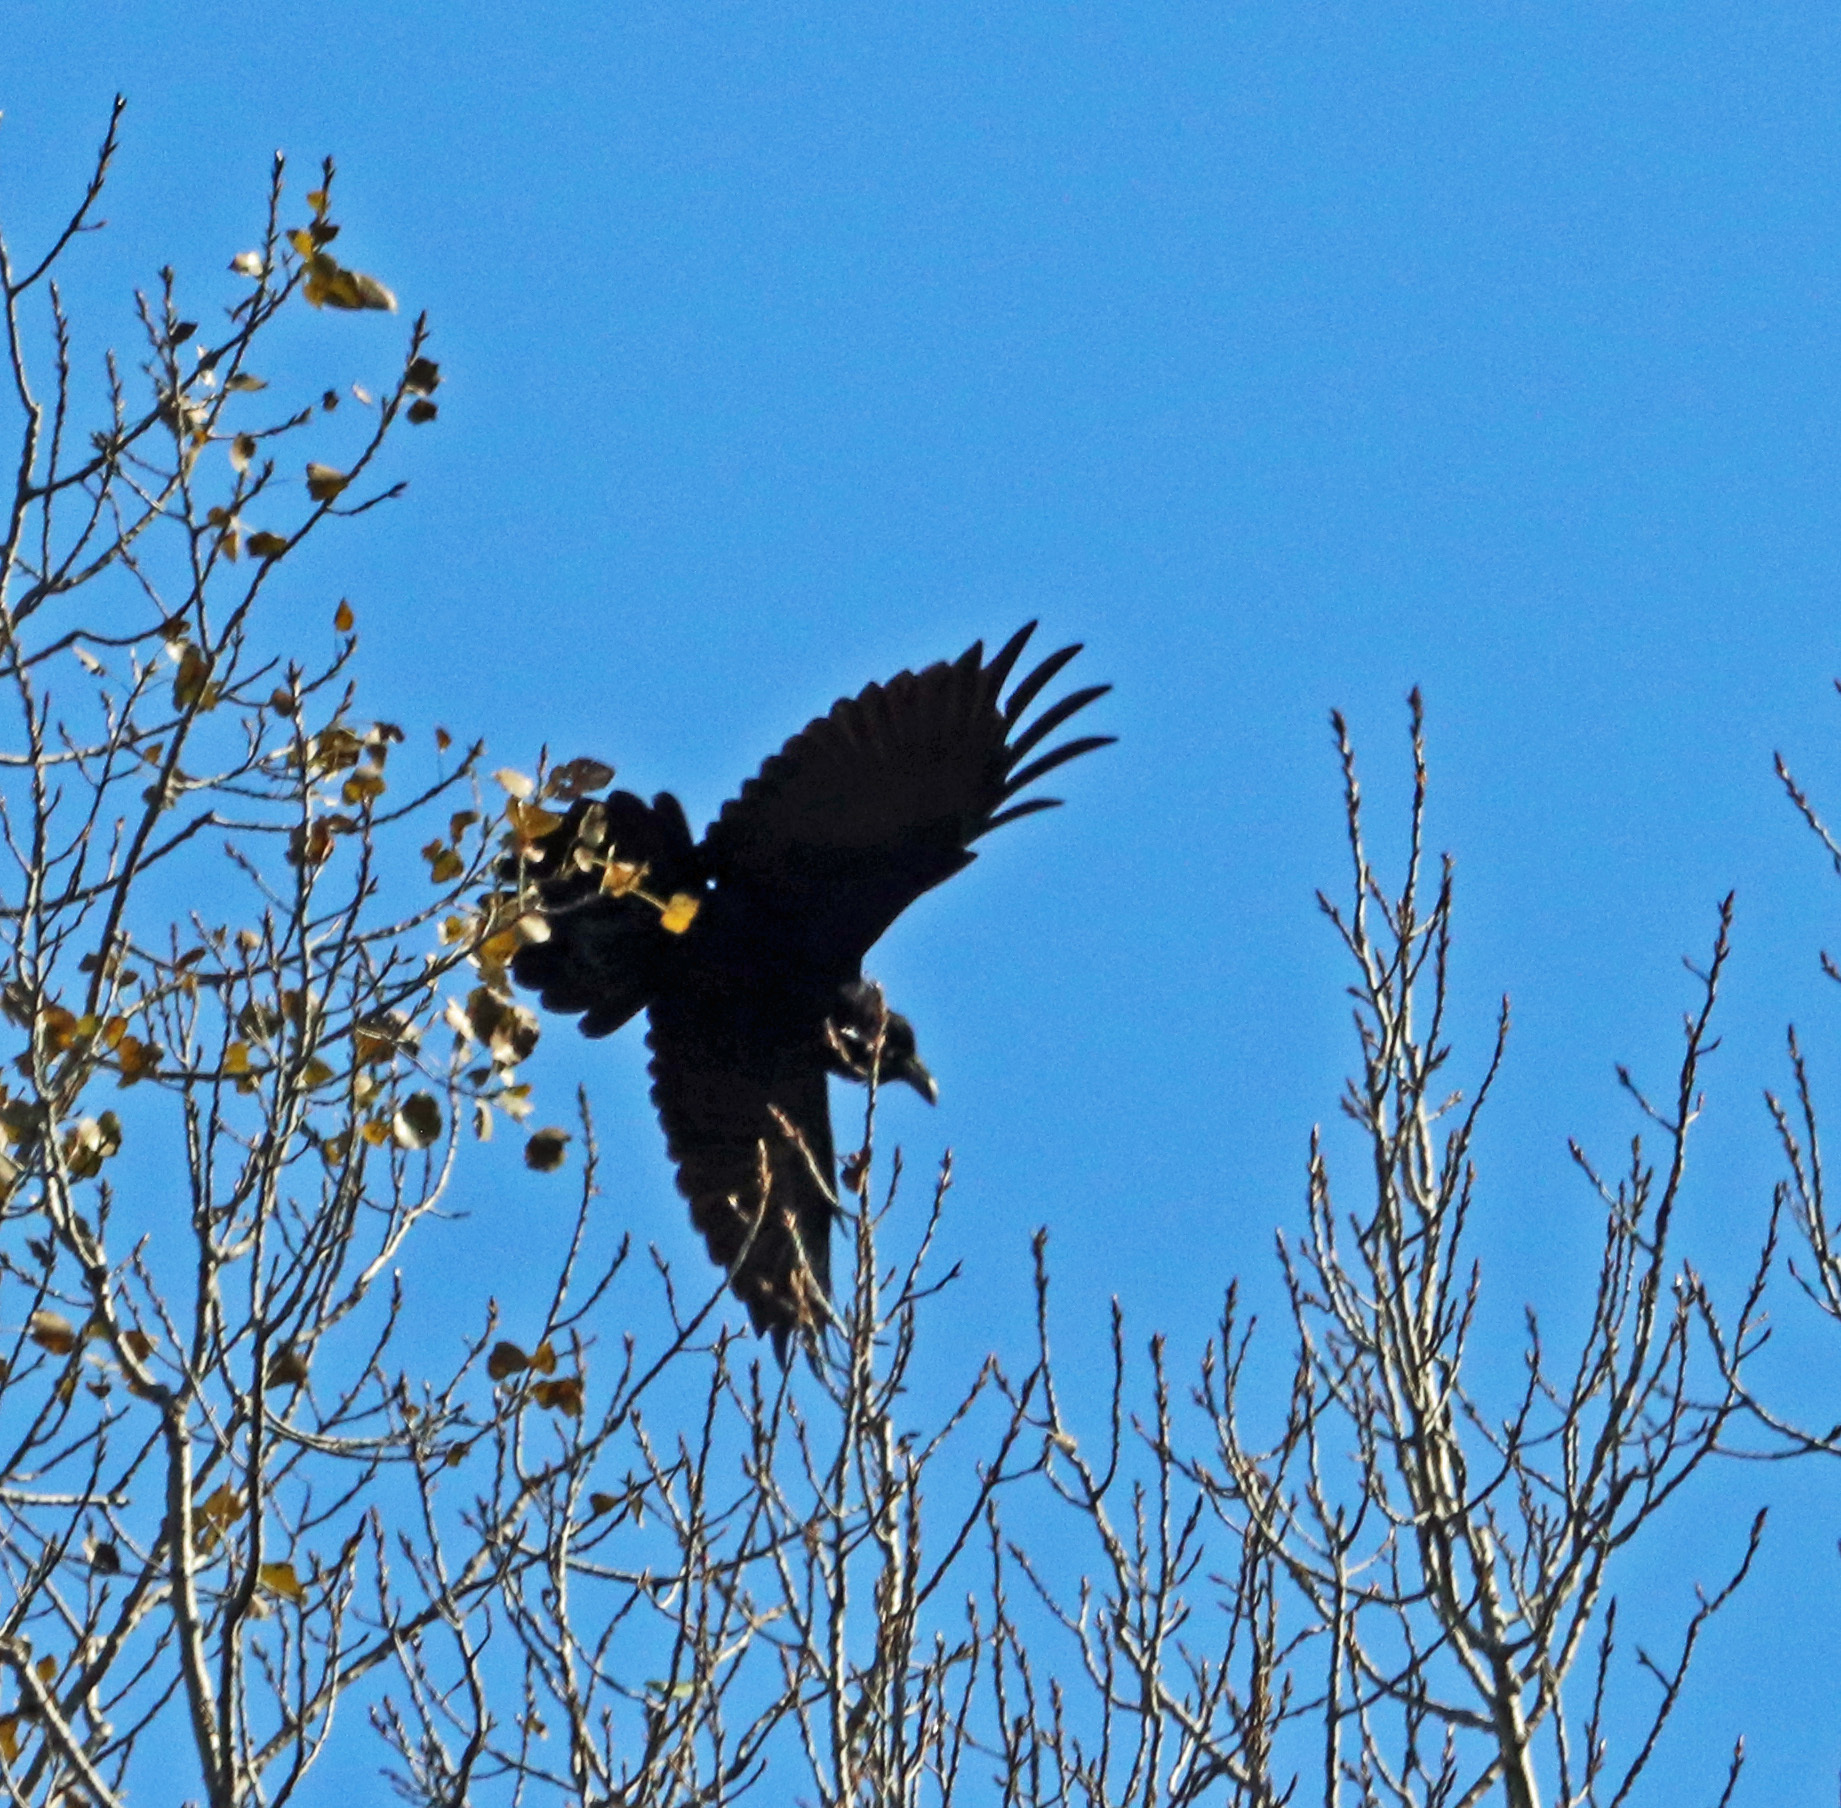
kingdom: Animalia
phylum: Chordata
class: Aves
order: Passeriformes
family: Corvidae
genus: Corvus
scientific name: Corvus corax
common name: Common raven
